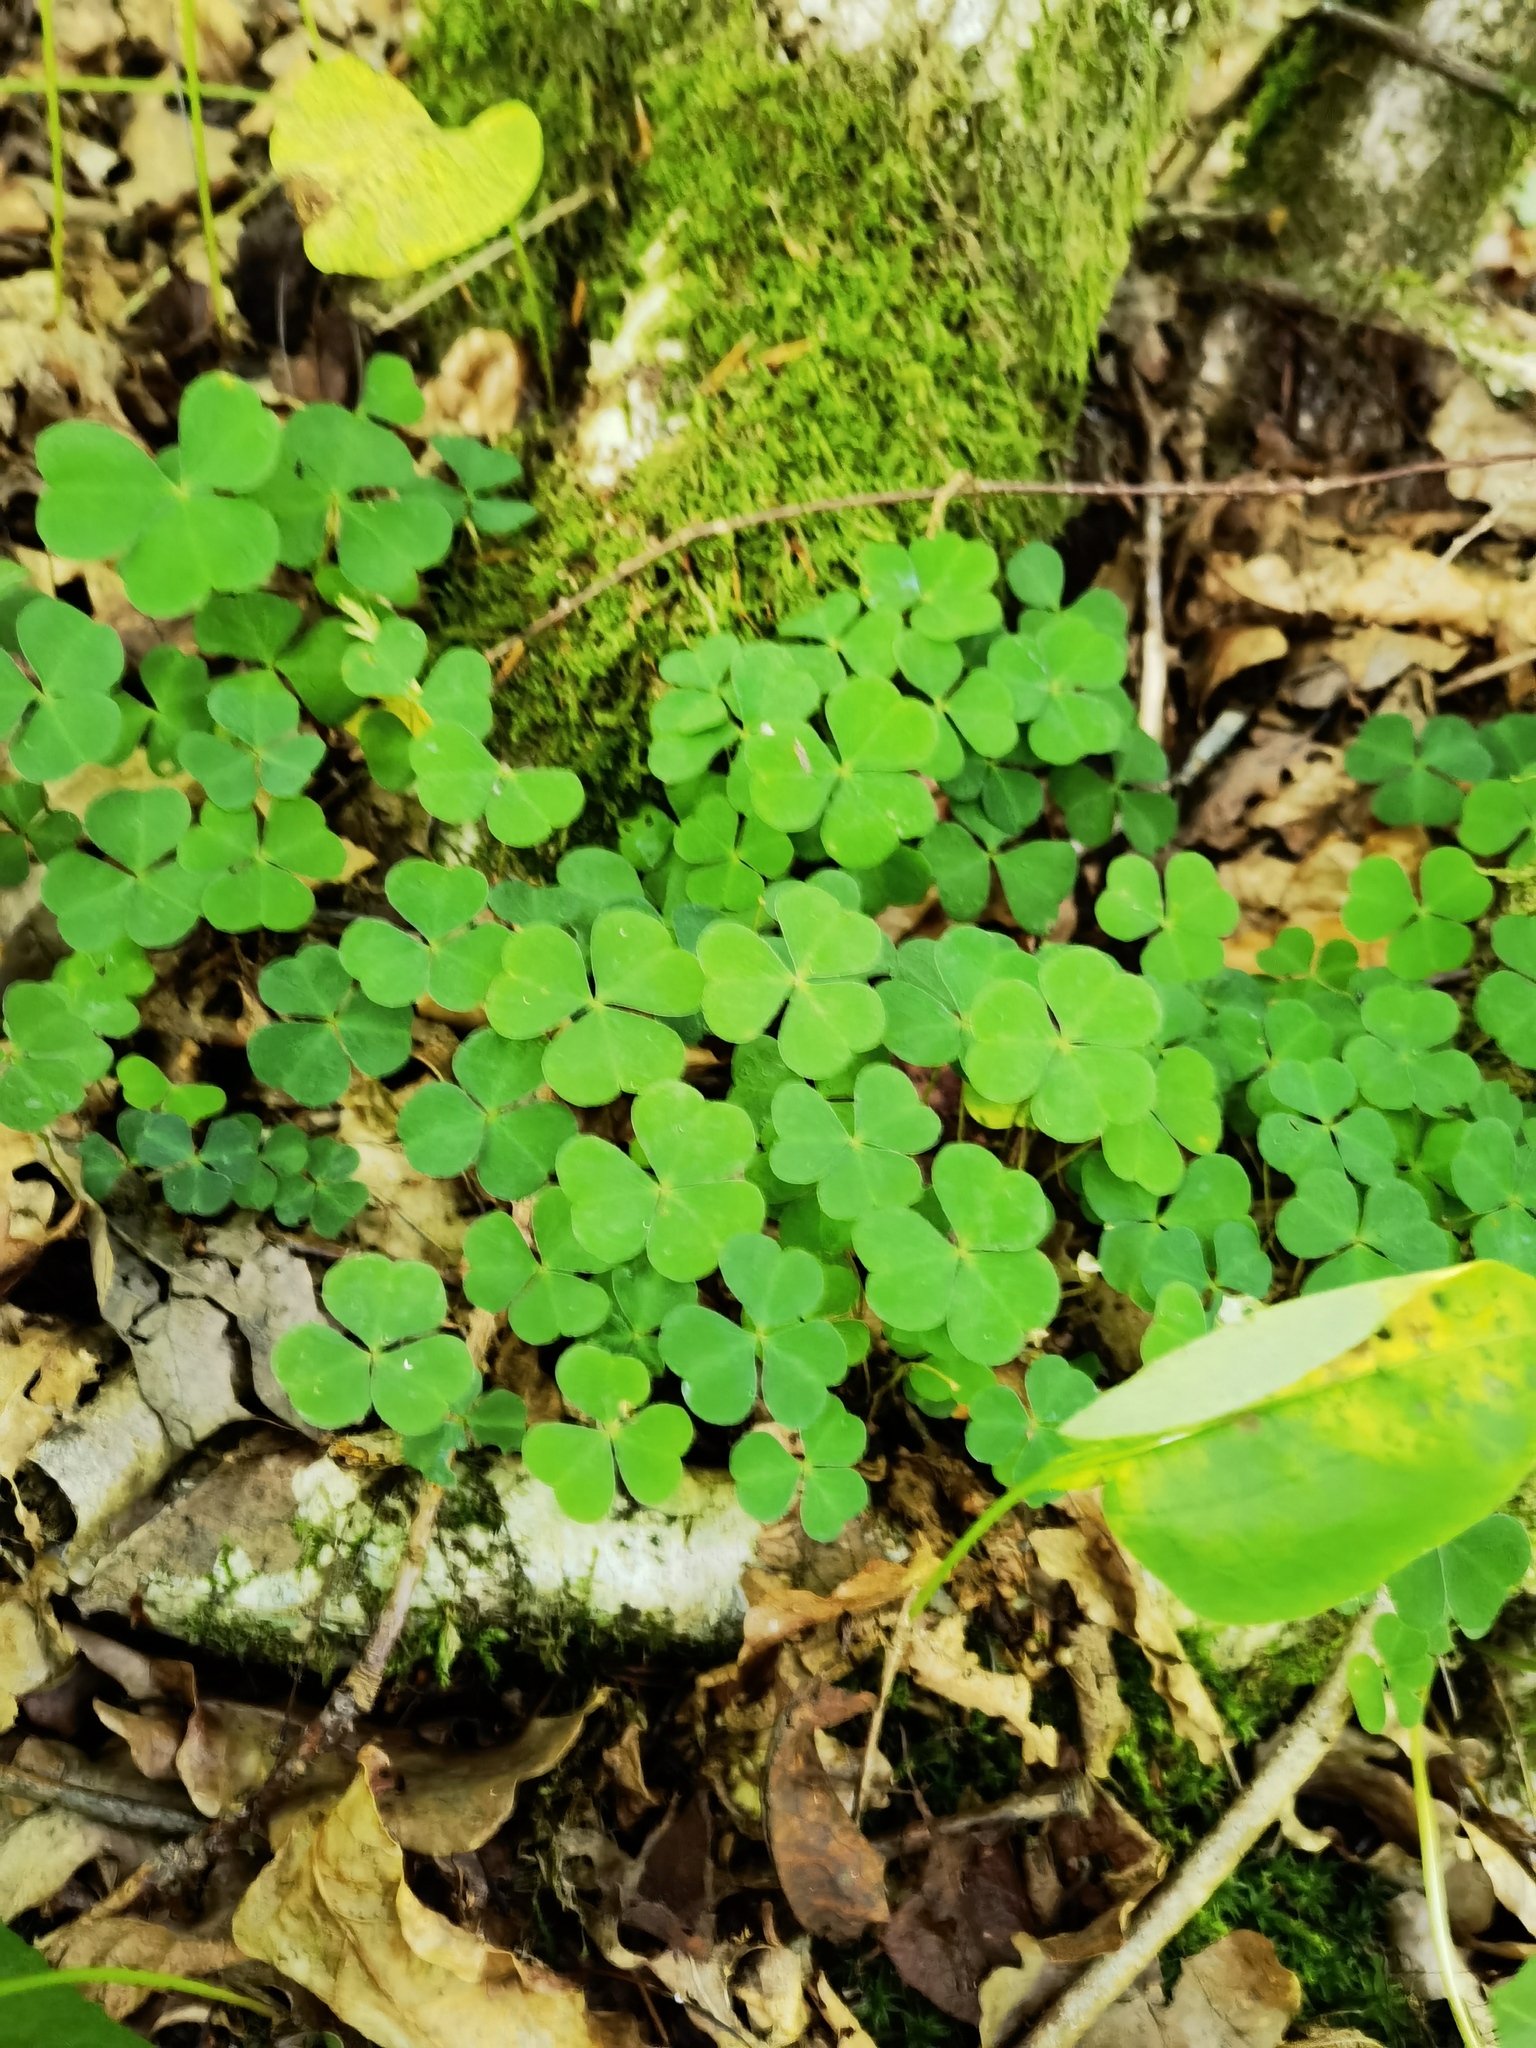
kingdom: Plantae
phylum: Tracheophyta
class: Magnoliopsida
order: Oxalidales
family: Oxalidaceae
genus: Oxalis
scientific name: Oxalis acetosella
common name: Wood-sorrel
